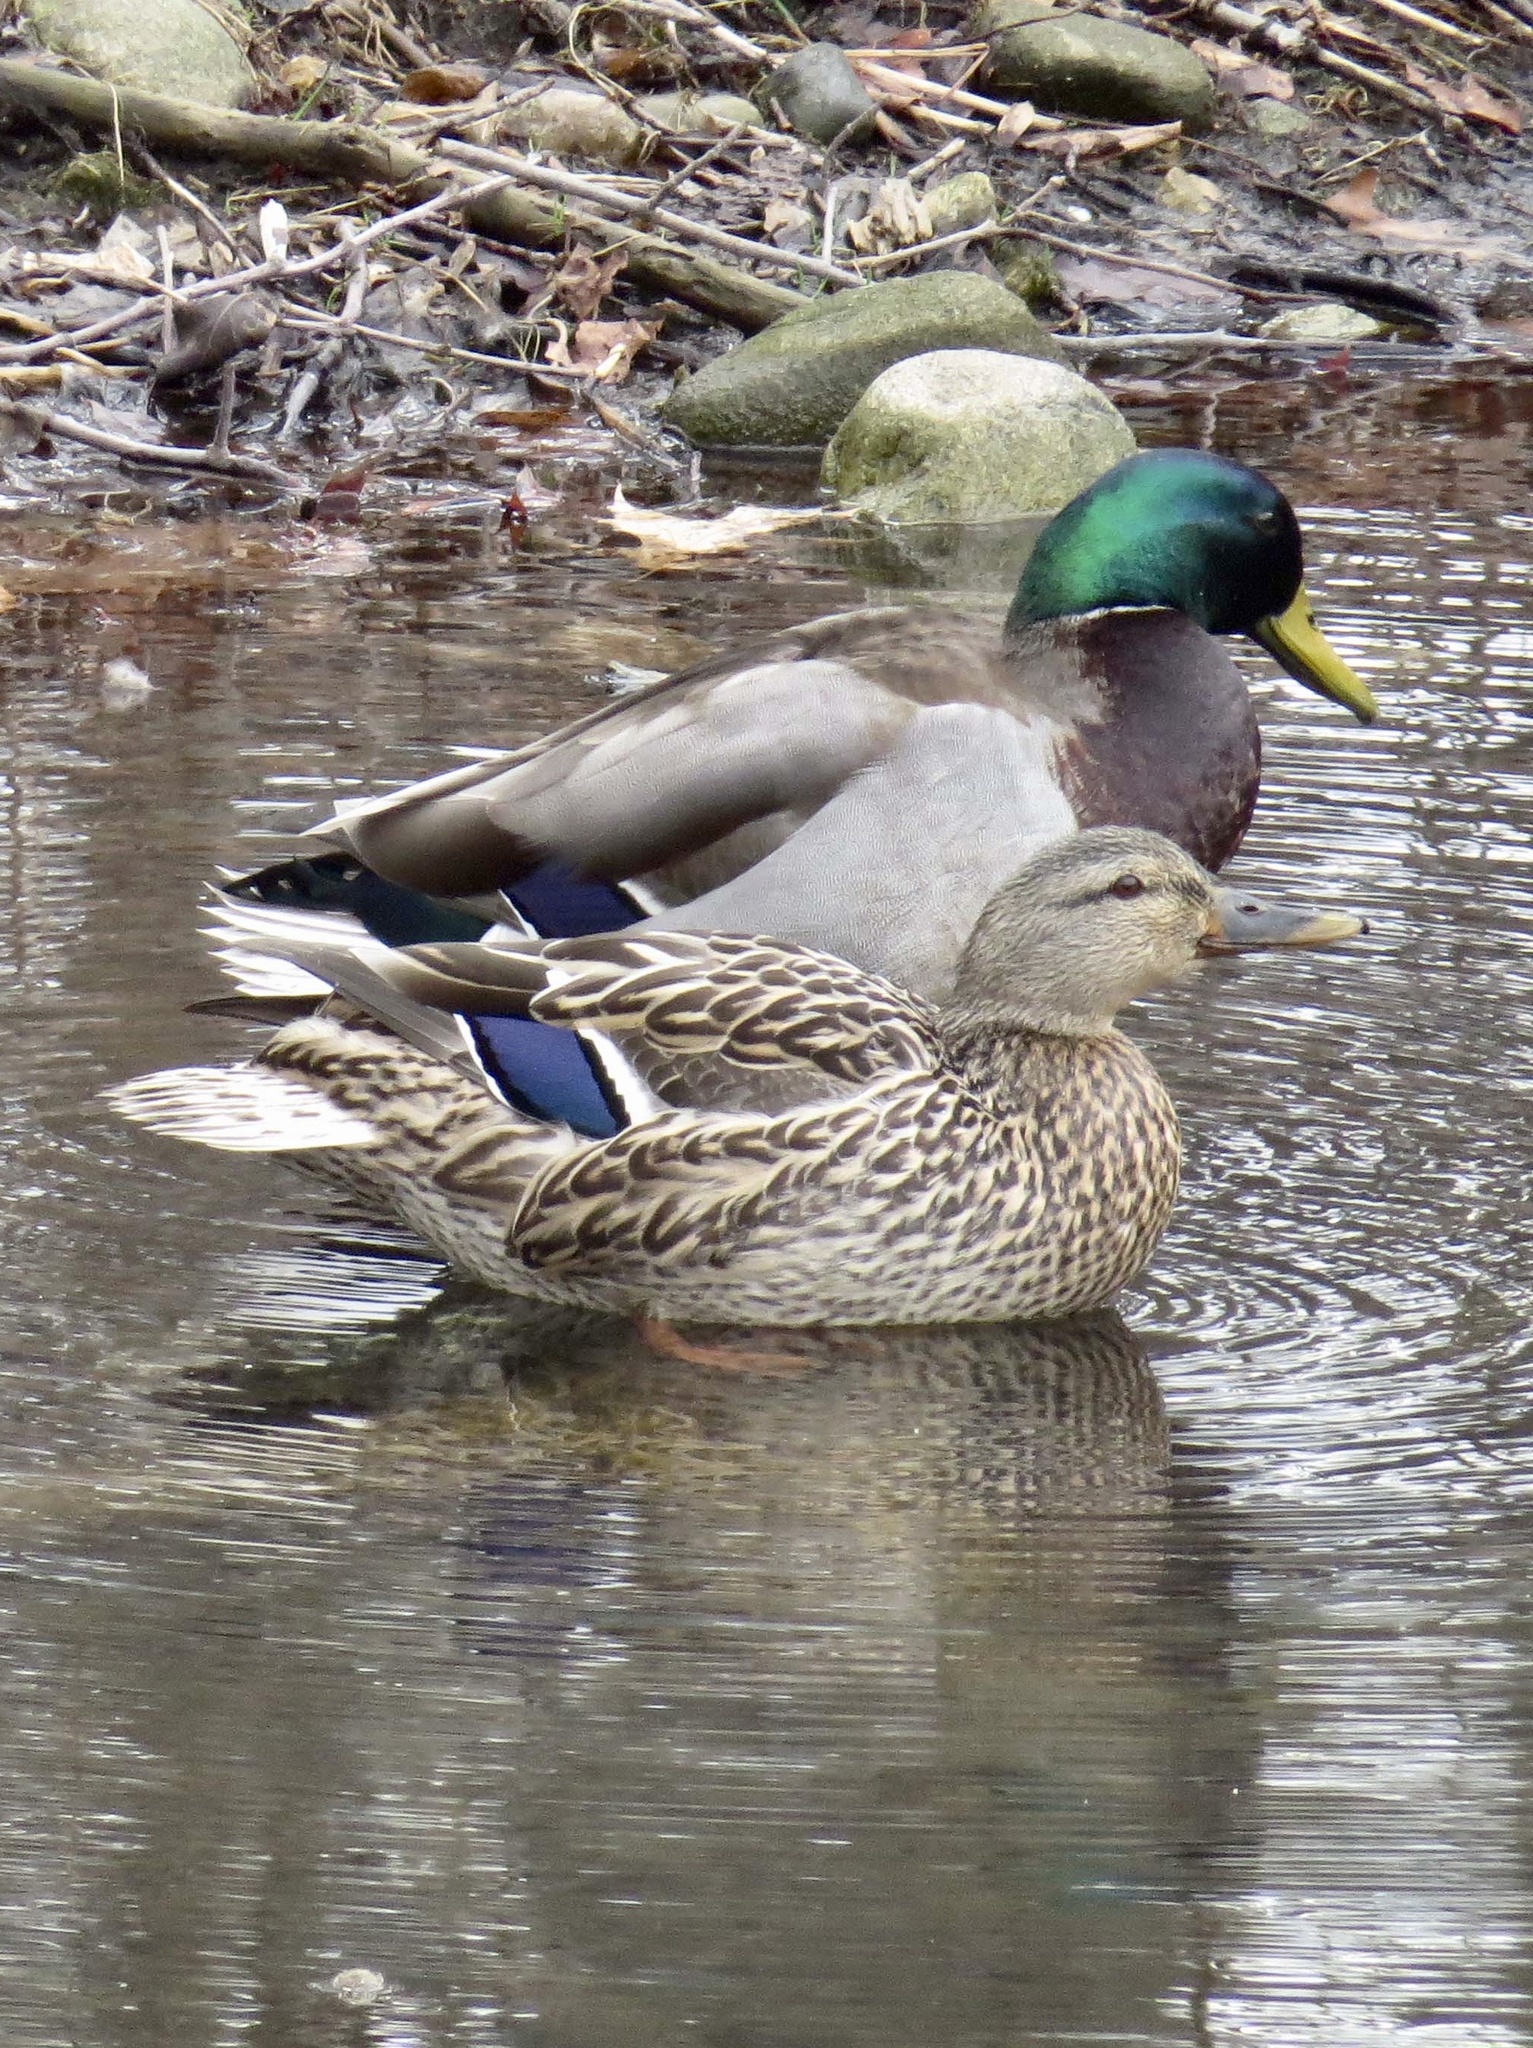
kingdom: Animalia
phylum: Chordata
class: Aves
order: Anseriformes
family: Anatidae
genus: Anas
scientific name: Anas platyrhynchos
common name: Mallard
